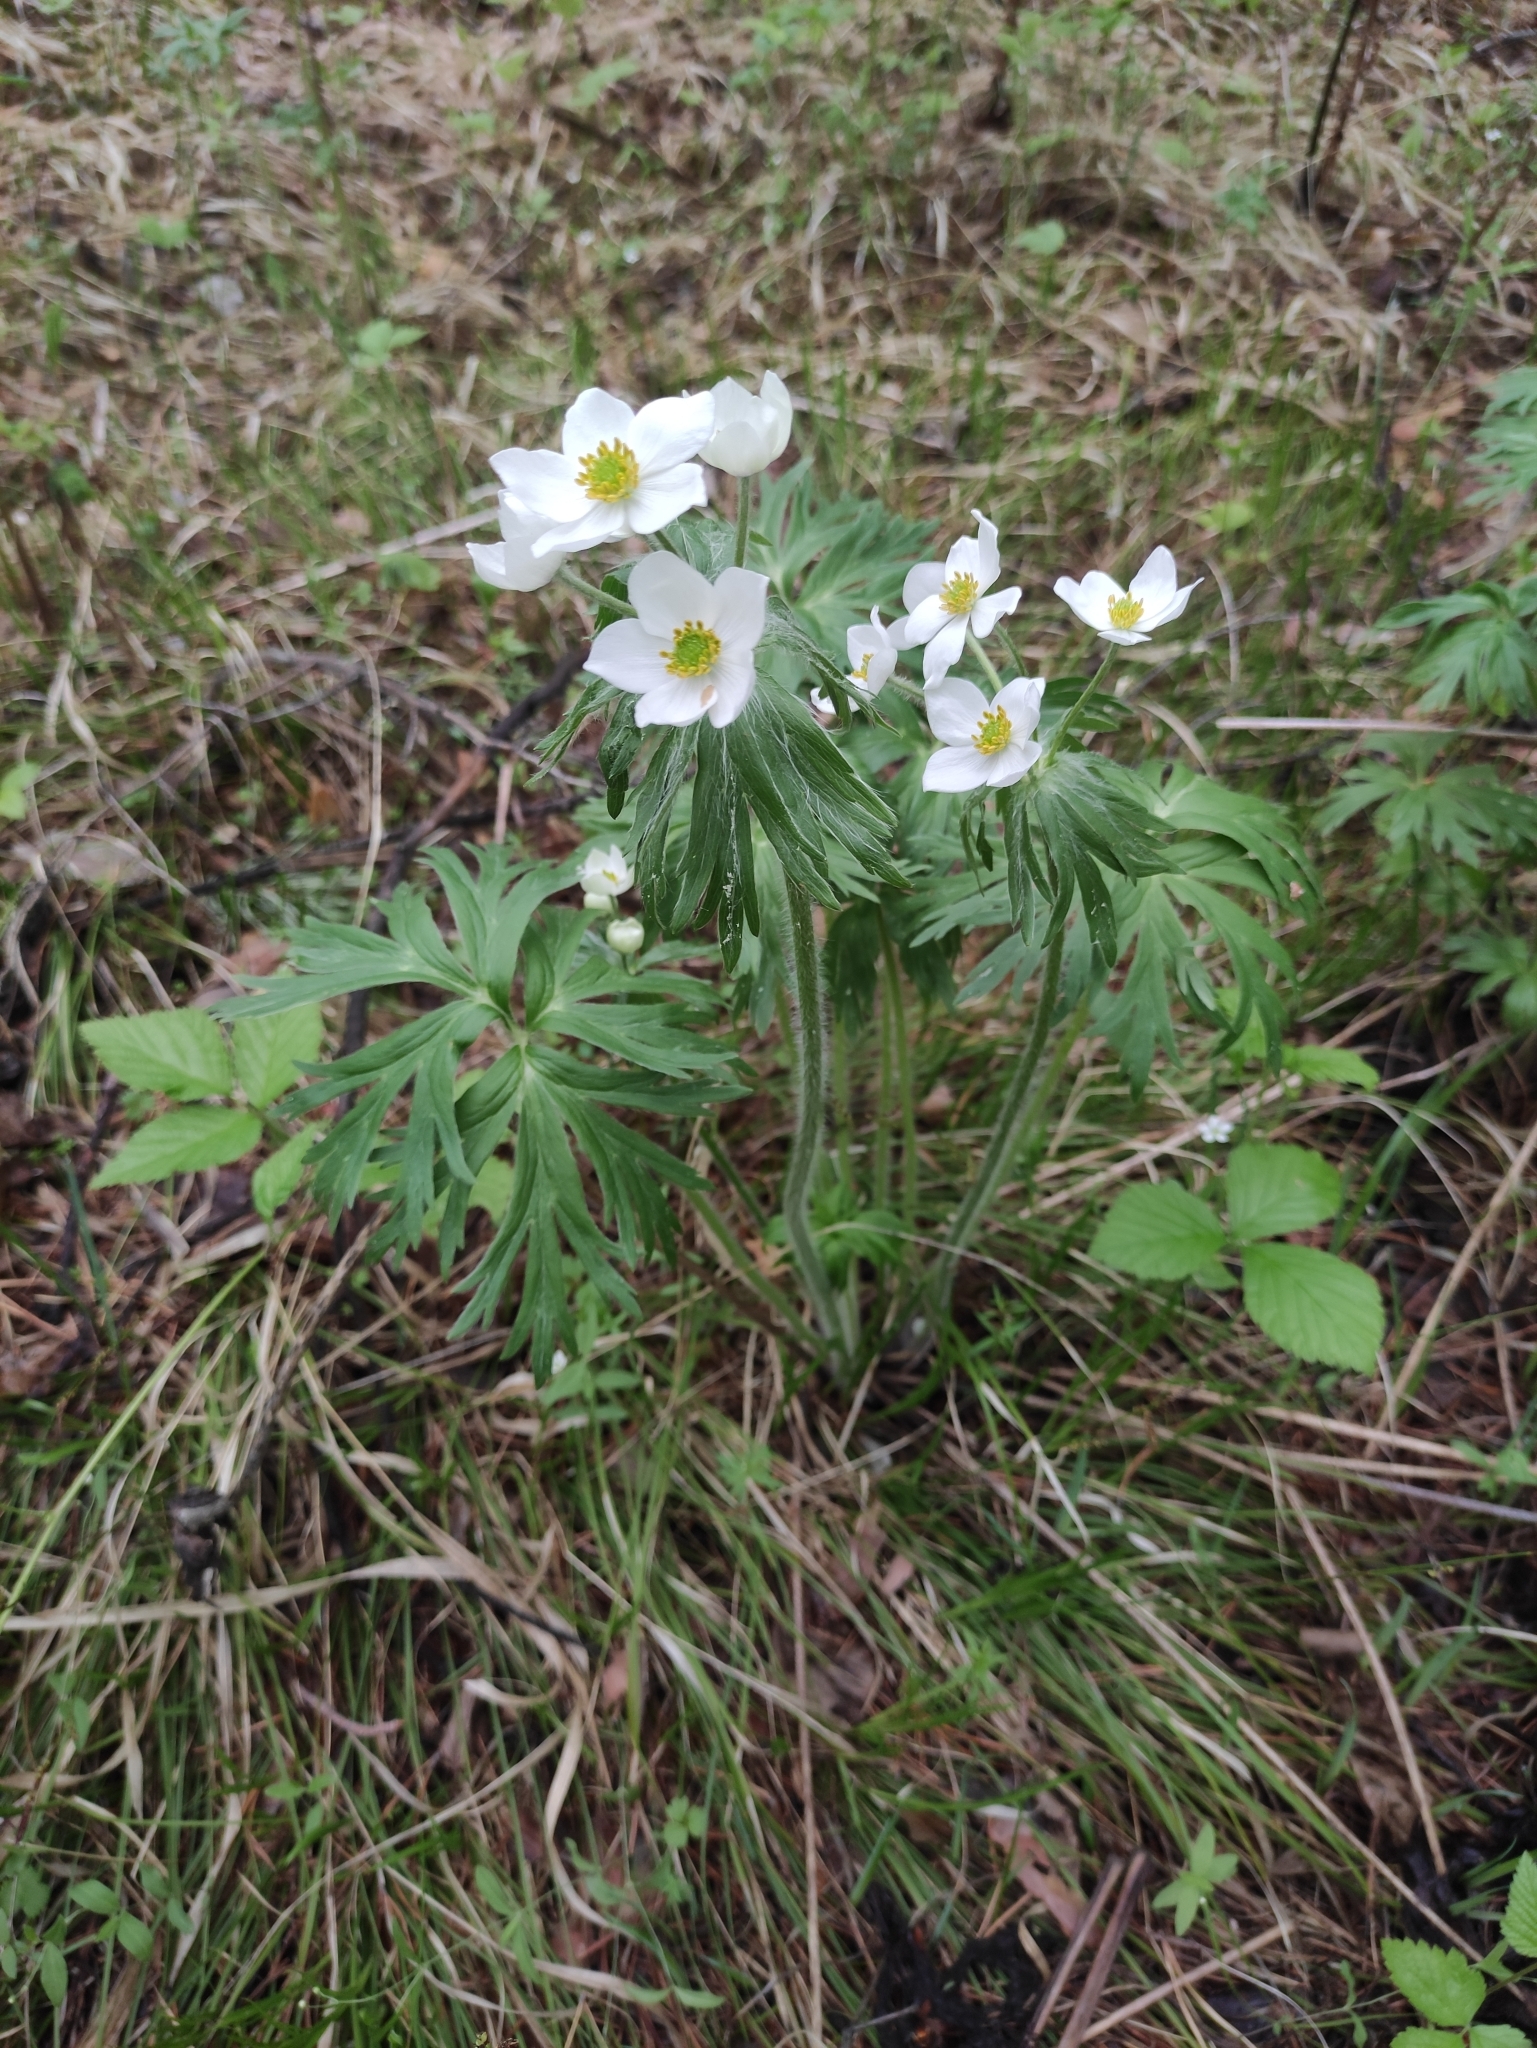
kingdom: Plantae
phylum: Tracheophyta
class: Magnoliopsida
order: Ranunculales
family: Ranunculaceae
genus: Anemonastrum
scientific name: Anemonastrum narcissiflorum
